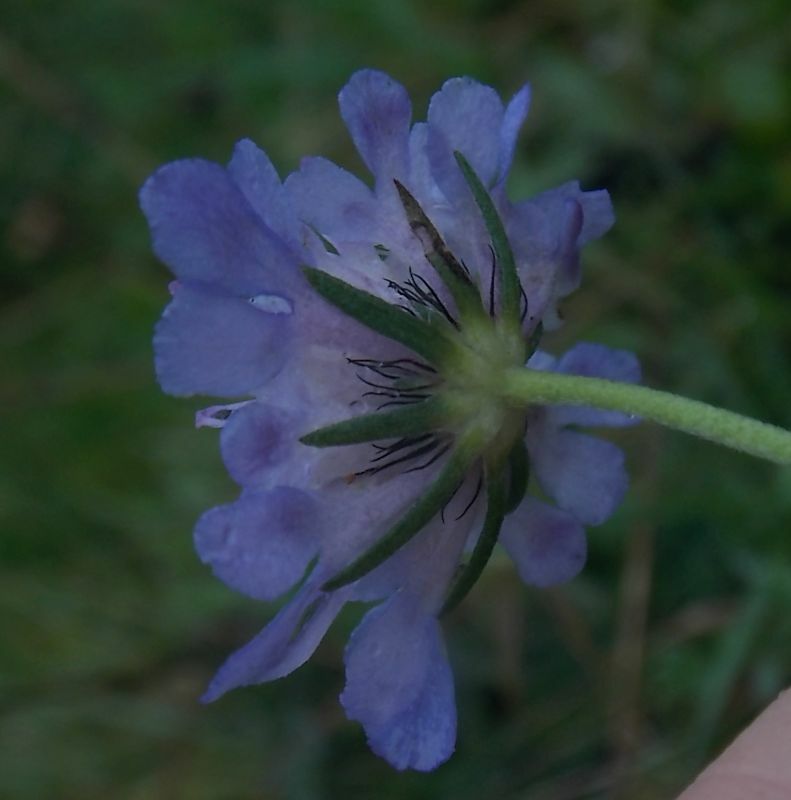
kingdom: Plantae
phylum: Tracheophyta
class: Magnoliopsida
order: Dipsacales
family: Caprifoliaceae
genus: Scabiosa
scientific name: Scabiosa columbaria
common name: Small scabious
